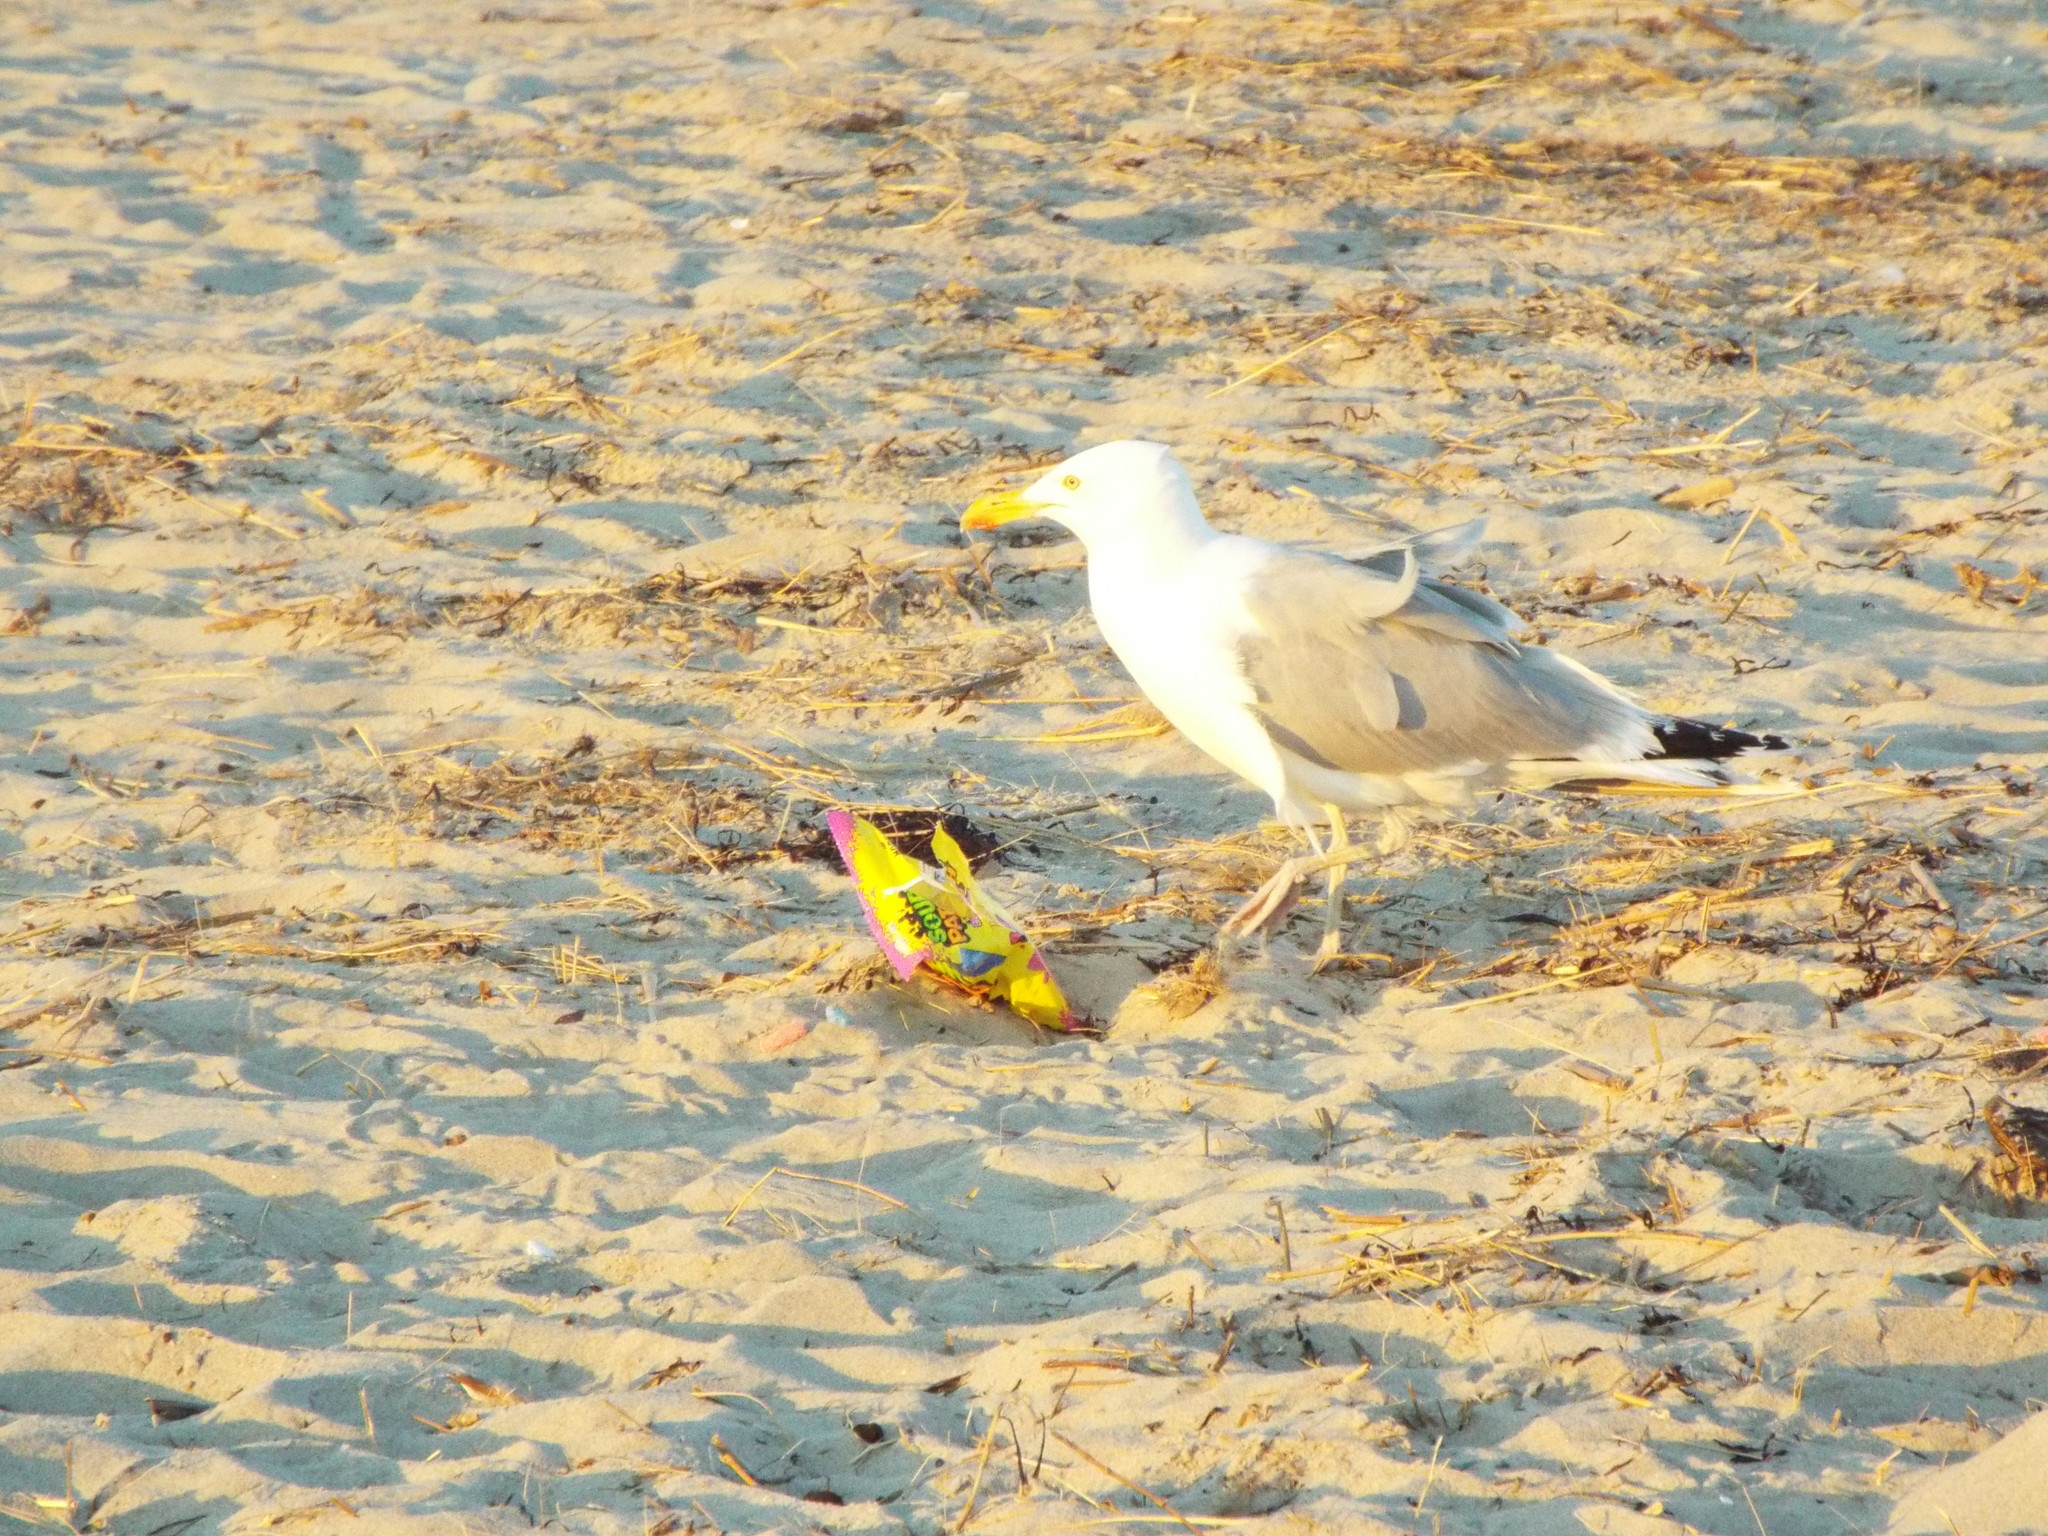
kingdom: Animalia
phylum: Chordata
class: Aves
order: Charadriiformes
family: Laridae
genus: Larus
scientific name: Larus argentatus
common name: Herring gull
